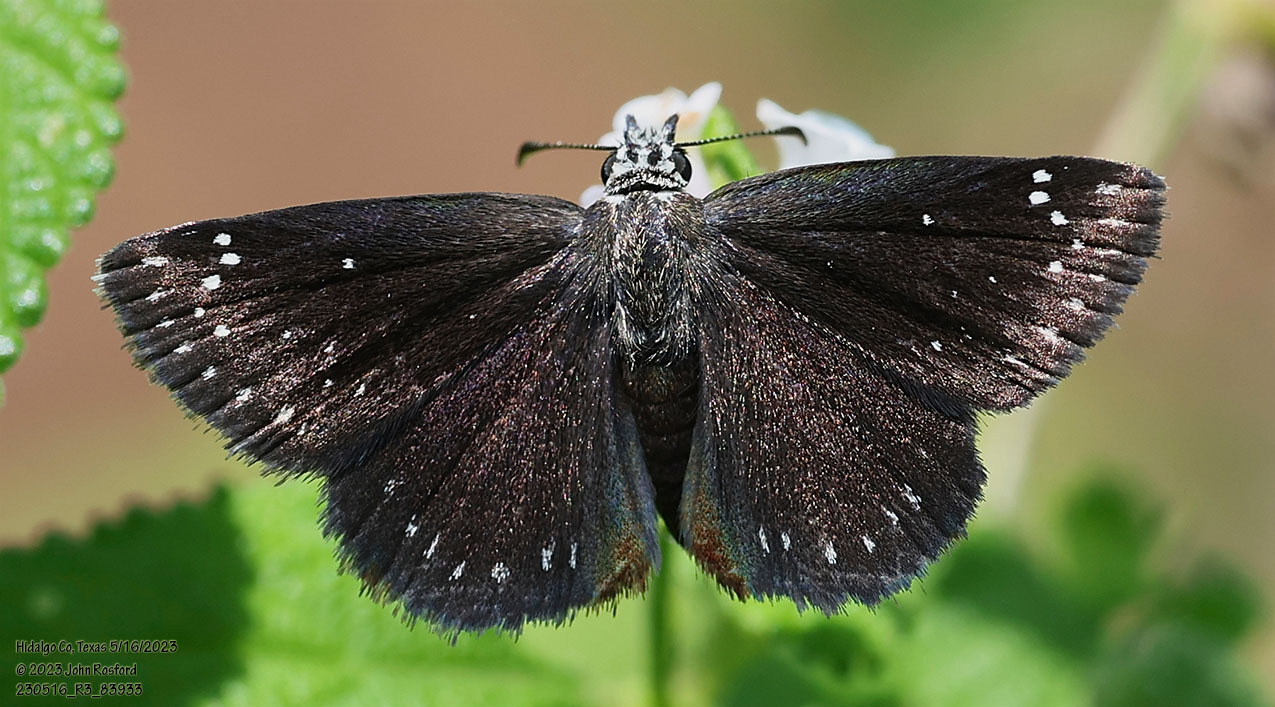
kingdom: Animalia
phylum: Arthropoda
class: Insecta
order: Lepidoptera
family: Hesperiidae
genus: Pholisora
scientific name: Pholisora catullus
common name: Common sootywing
